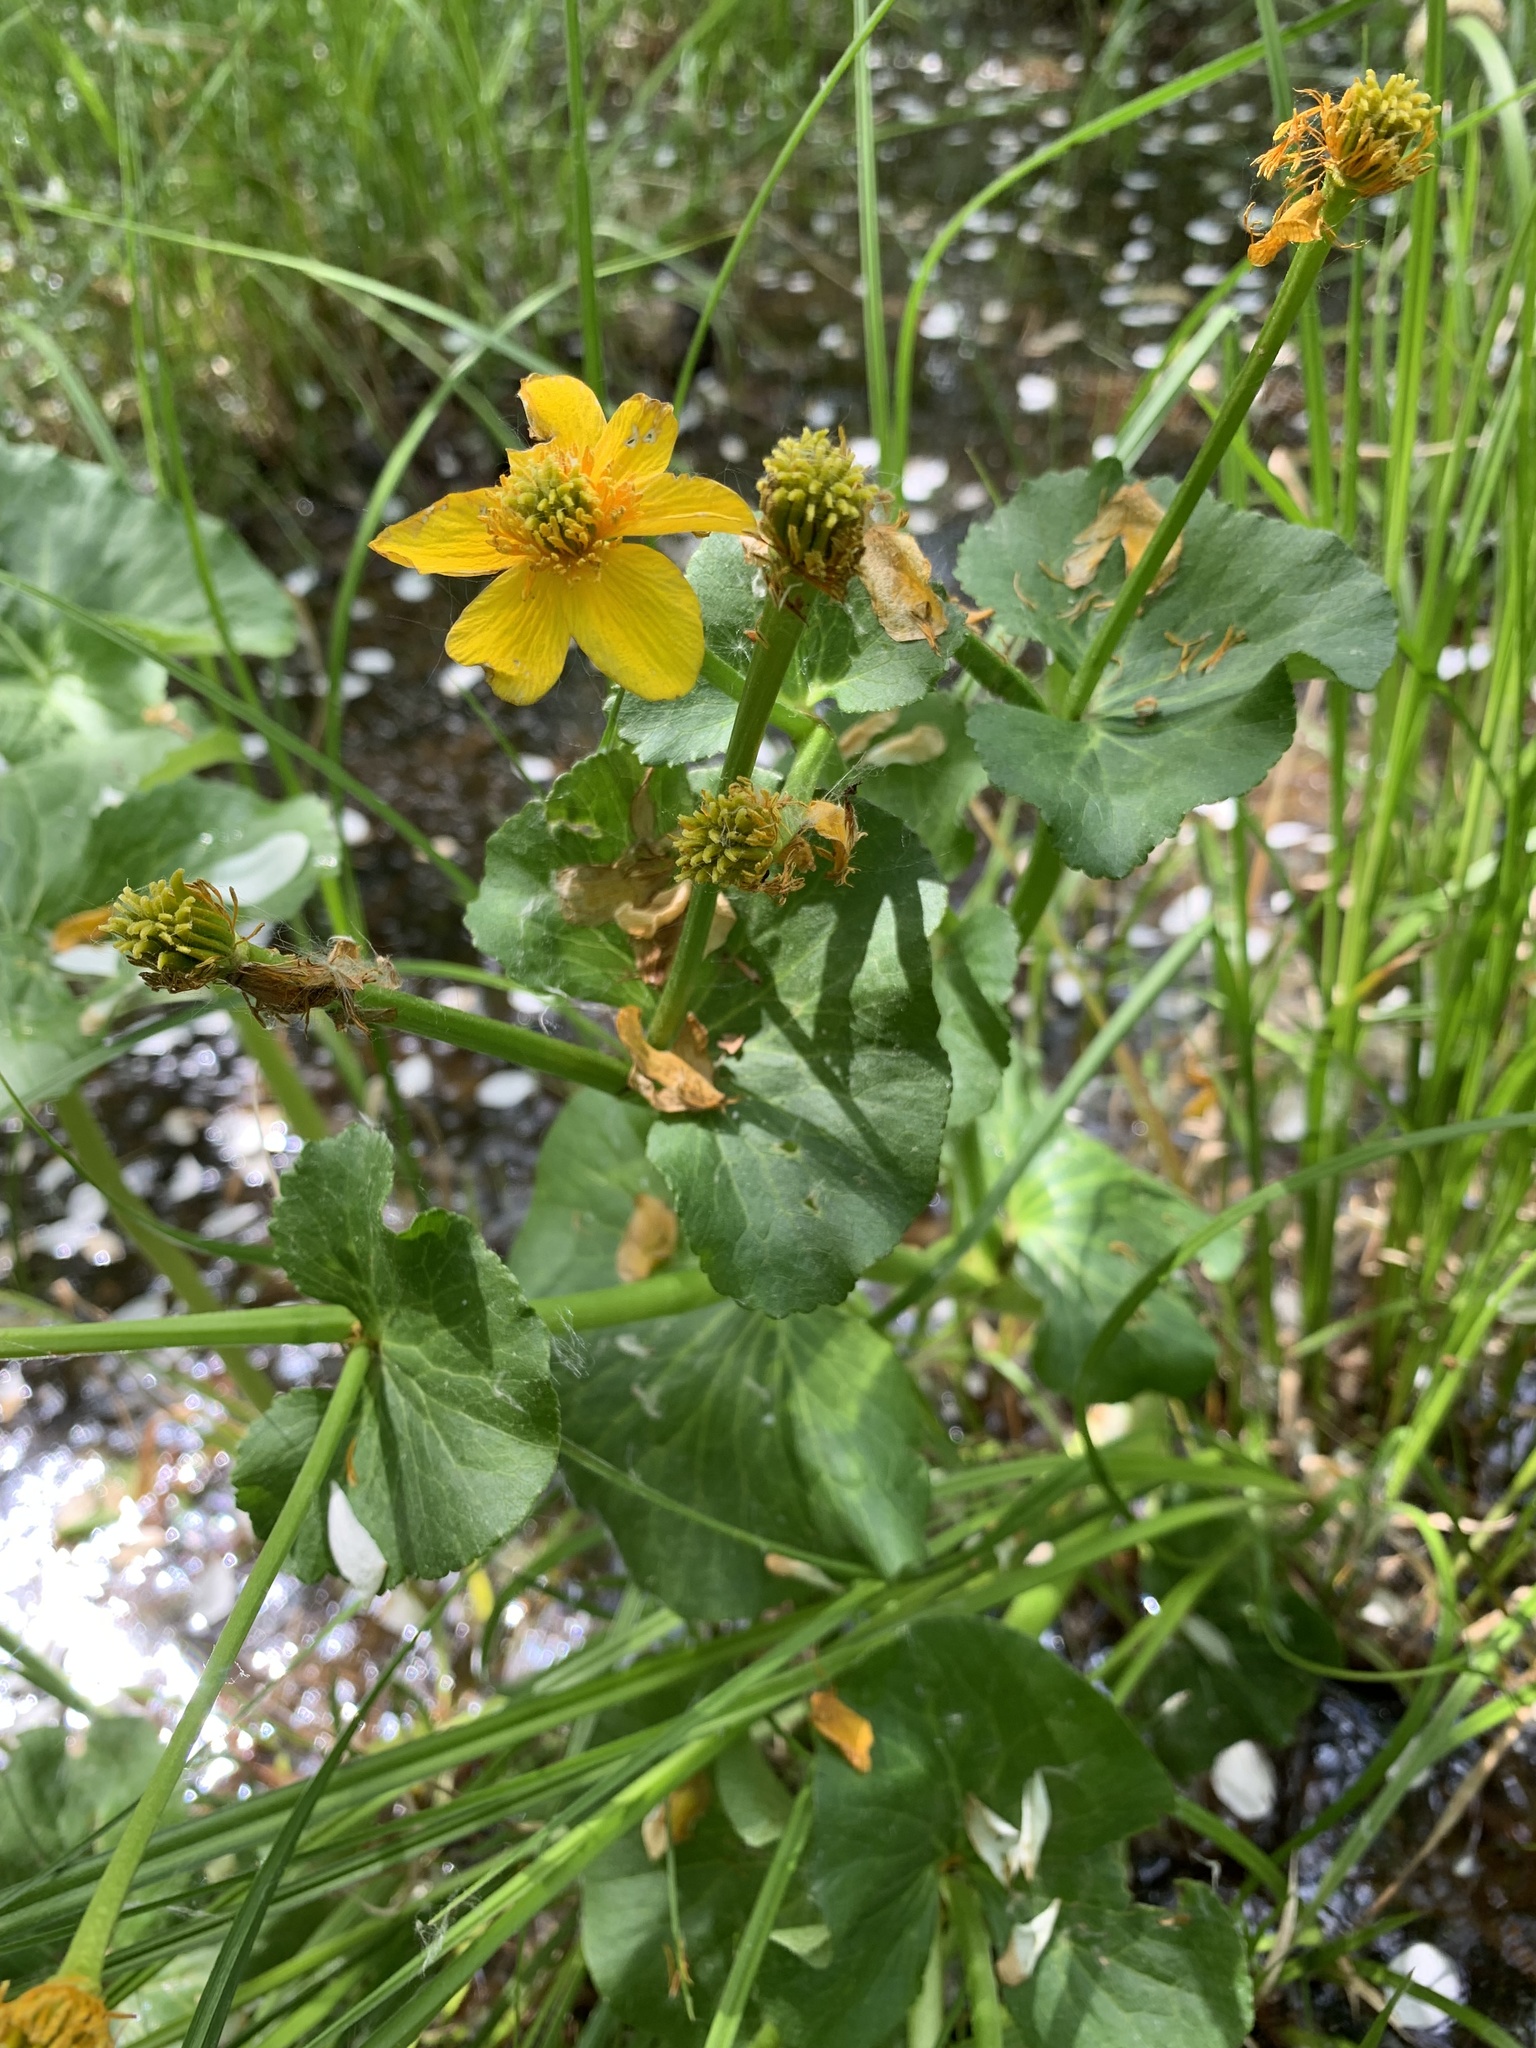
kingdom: Plantae
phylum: Tracheophyta
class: Magnoliopsida
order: Ranunculales
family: Ranunculaceae
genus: Caltha
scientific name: Caltha palustris
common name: Marsh marigold
